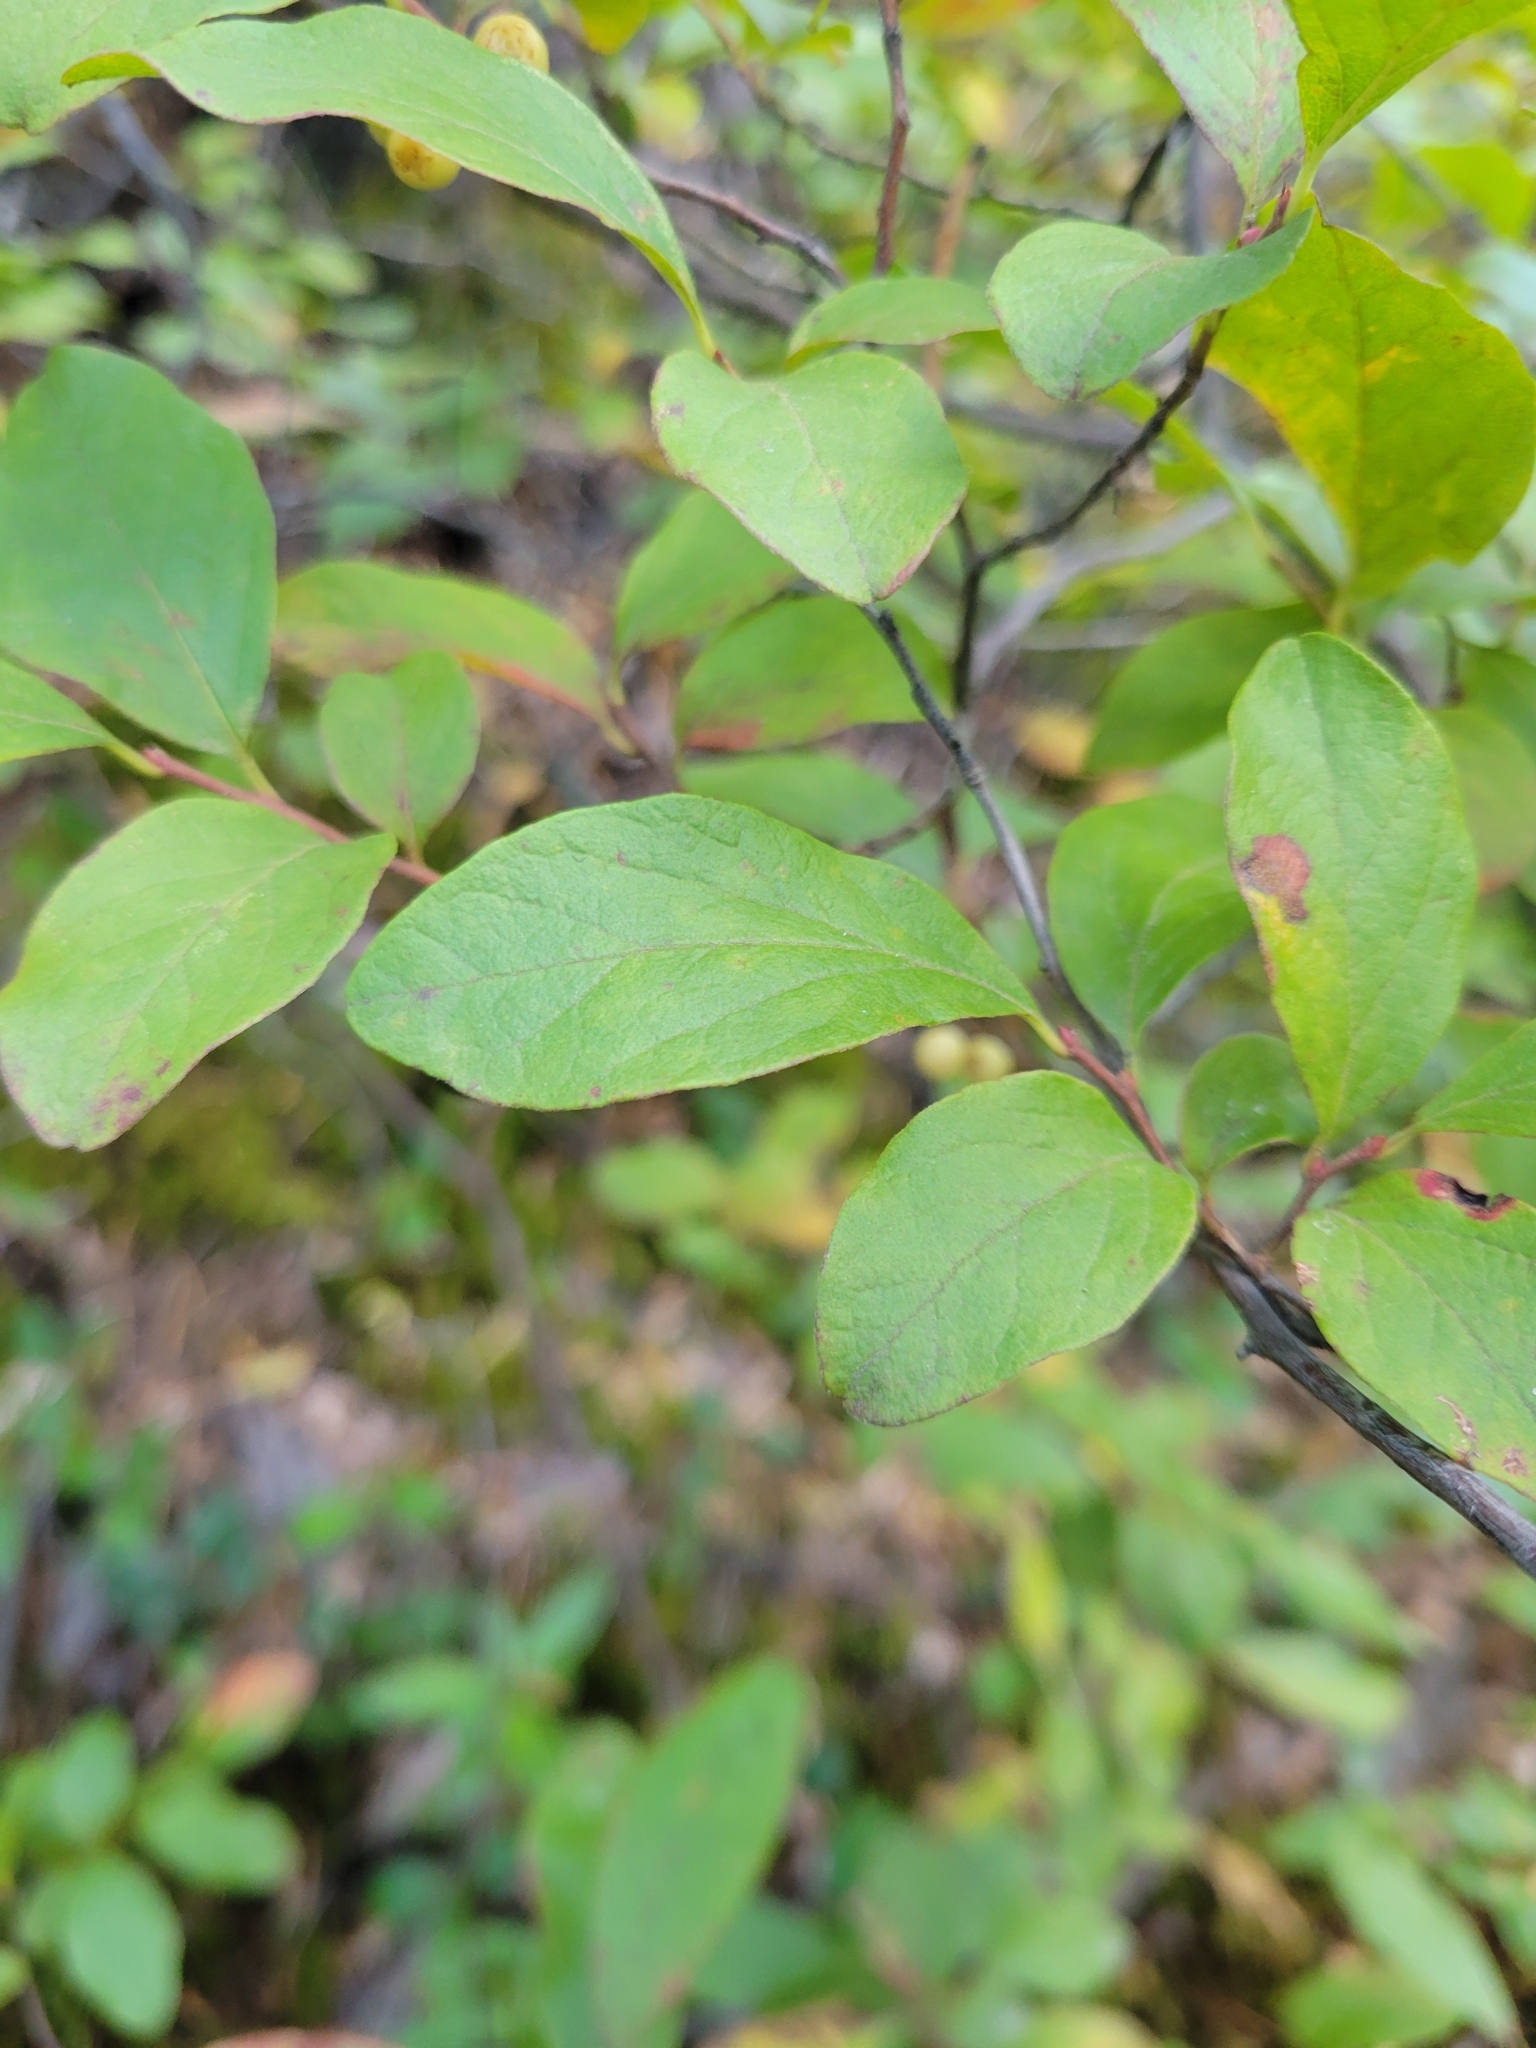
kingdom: Plantae
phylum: Tracheophyta
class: Magnoliopsida
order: Ericales
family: Ericaceae
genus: Gaylussacia
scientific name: Gaylussacia baccata
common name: Black huckleberry
